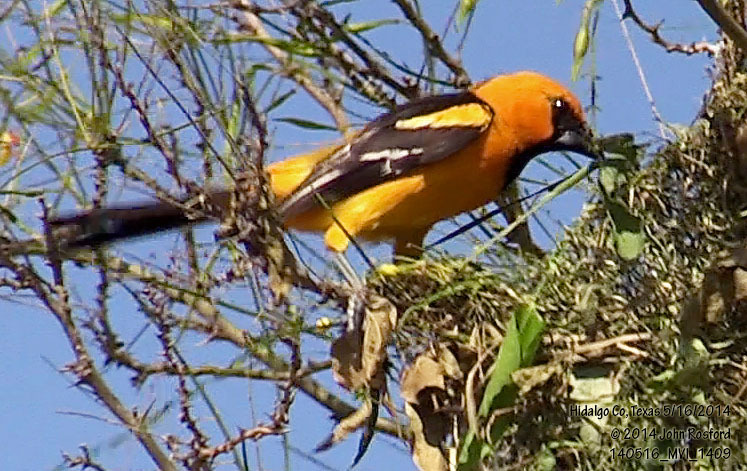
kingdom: Animalia
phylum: Chordata
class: Aves
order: Passeriformes
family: Icteridae
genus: Icterus
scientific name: Icterus gularis
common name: Altamira oriole
